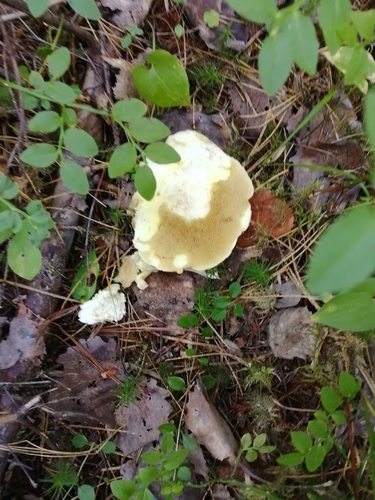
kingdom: Fungi
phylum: Basidiomycota
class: Agaricomycetes
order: Boletales
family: Suillaceae
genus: Suillus
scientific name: Suillus placidus
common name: Slippery white bolete
